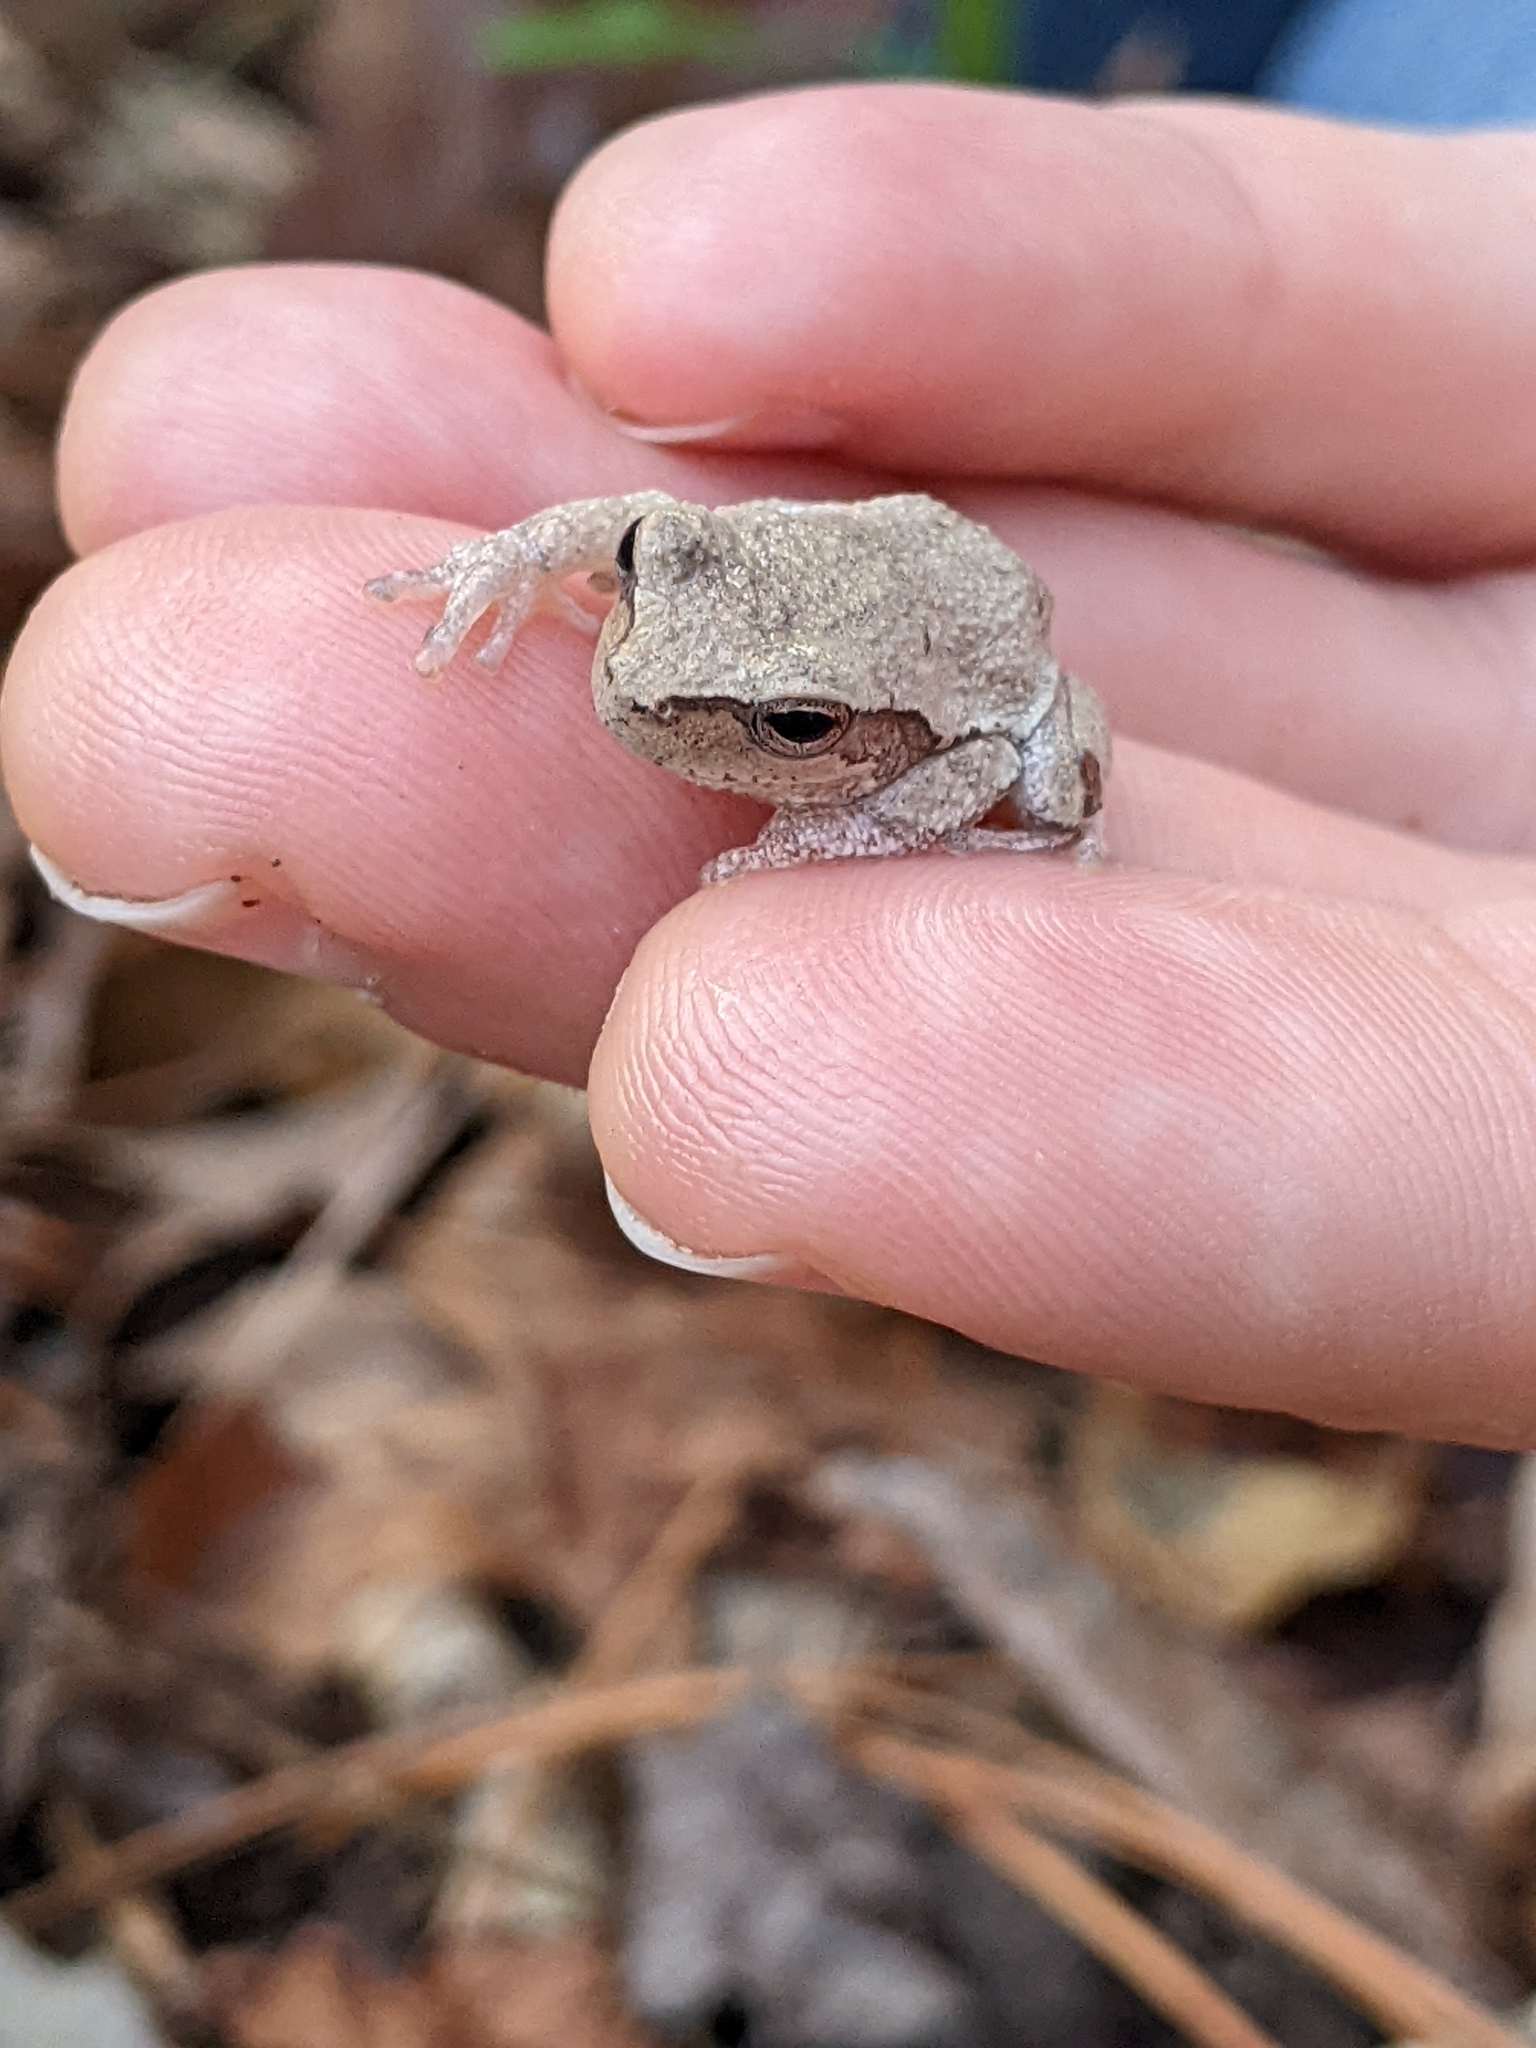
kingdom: Animalia
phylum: Chordata
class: Amphibia
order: Anura
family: Hylidae
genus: Hyla
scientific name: Hyla femoralis
